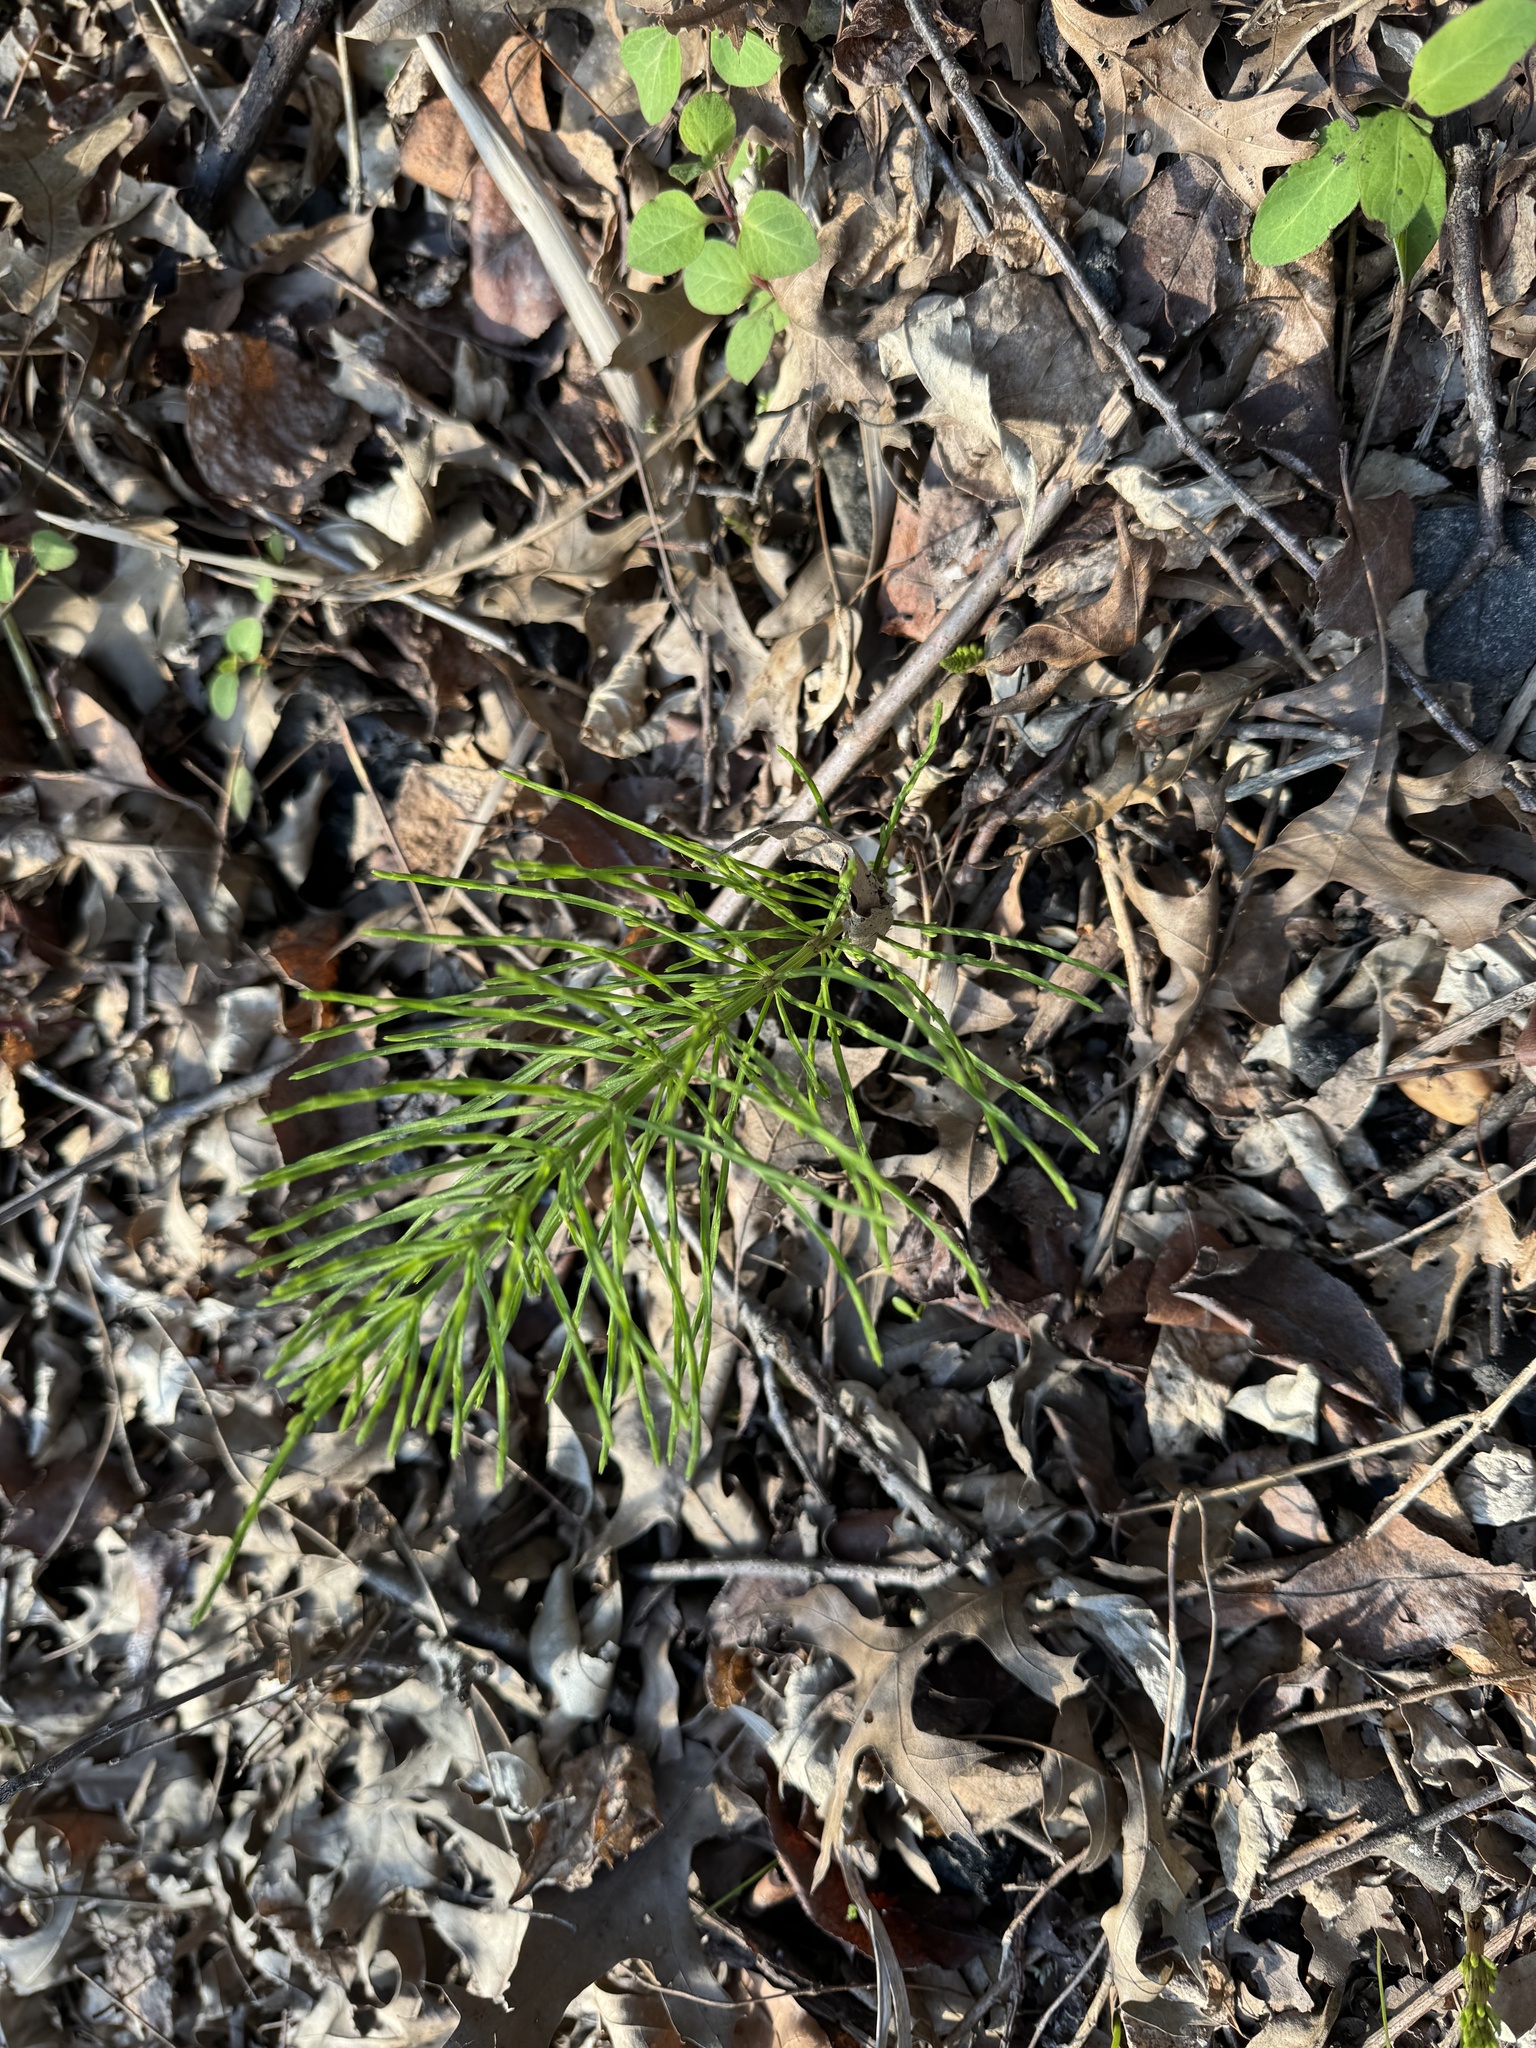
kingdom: Plantae
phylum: Tracheophyta
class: Polypodiopsida
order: Equisetales
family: Equisetaceae
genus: Equisetum
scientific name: Equisetum arvense
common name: Field horsetail
